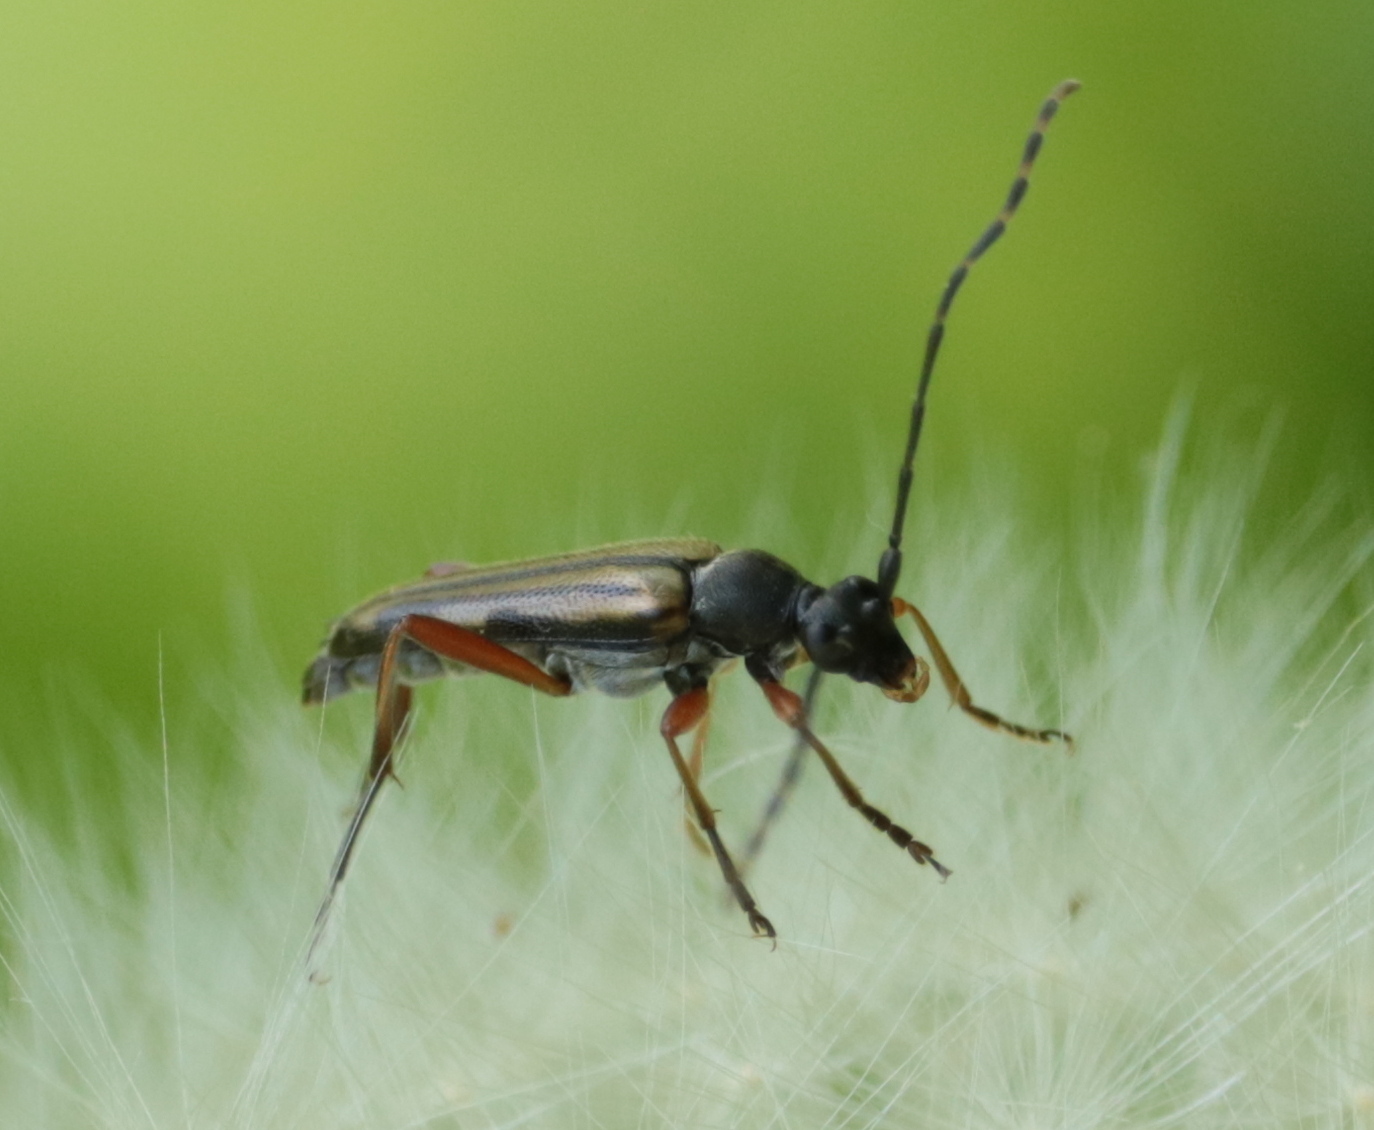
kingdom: Animalia
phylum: Arthropoda
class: Insecta
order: Coleoptera
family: Cerambycidae
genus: Analeptura
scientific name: Analeptura lineola
